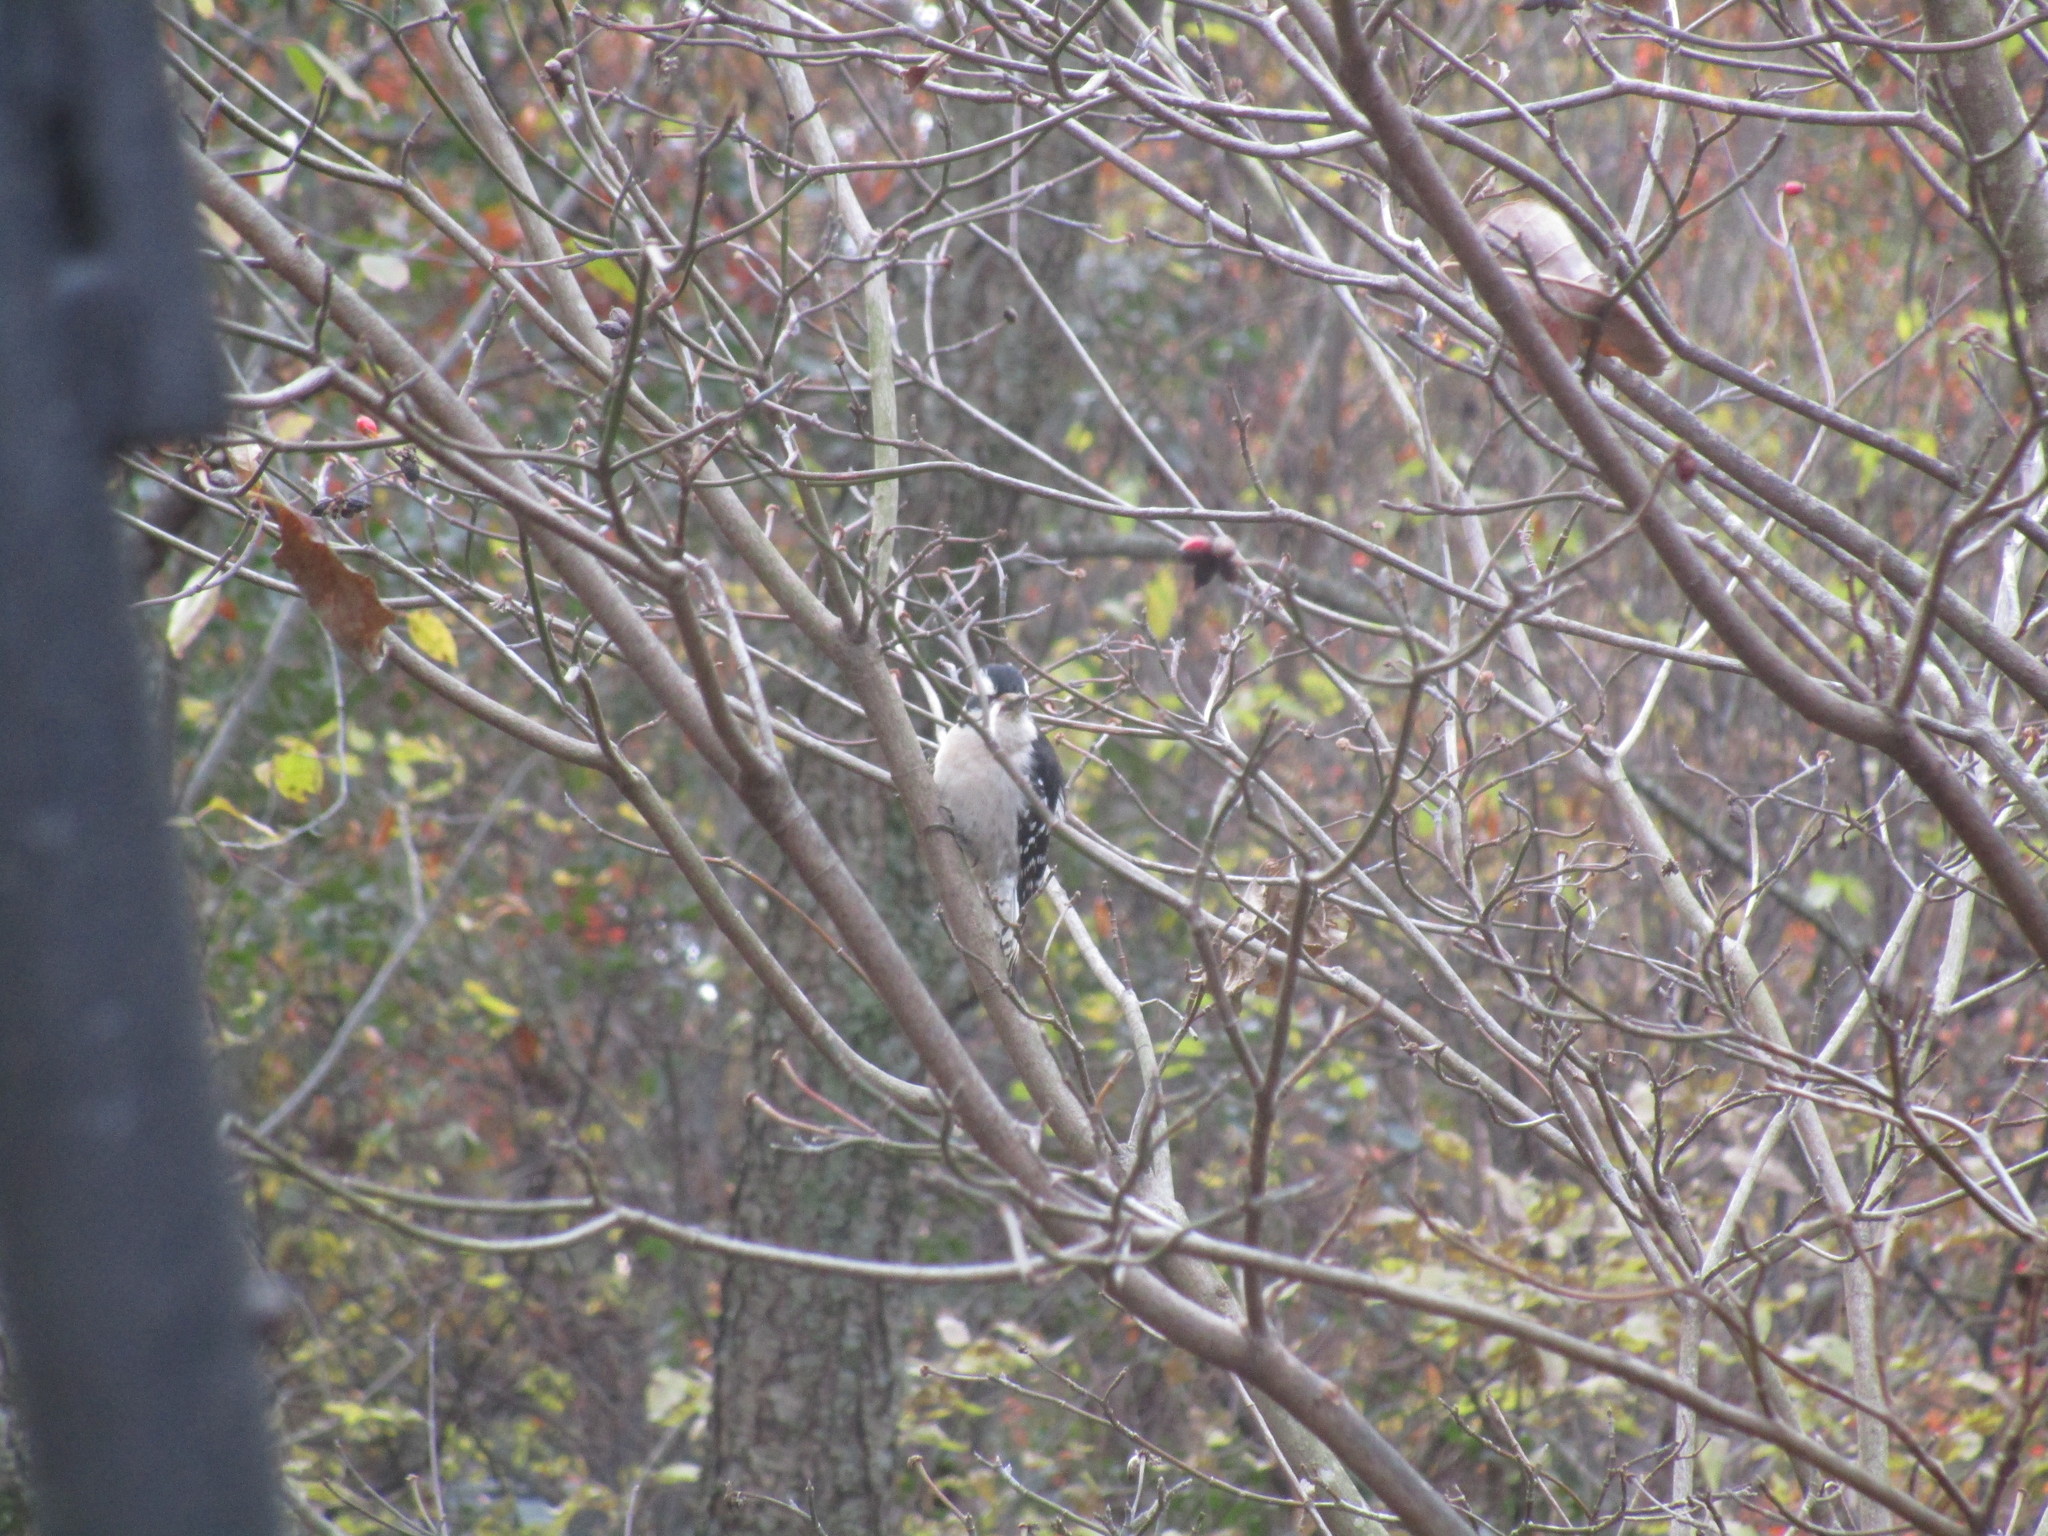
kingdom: Animalia
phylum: Chordata
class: Aves
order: Piciformes
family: Picidae
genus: Dryobates
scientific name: Dryobates pubescens
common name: Downy woodpecker
